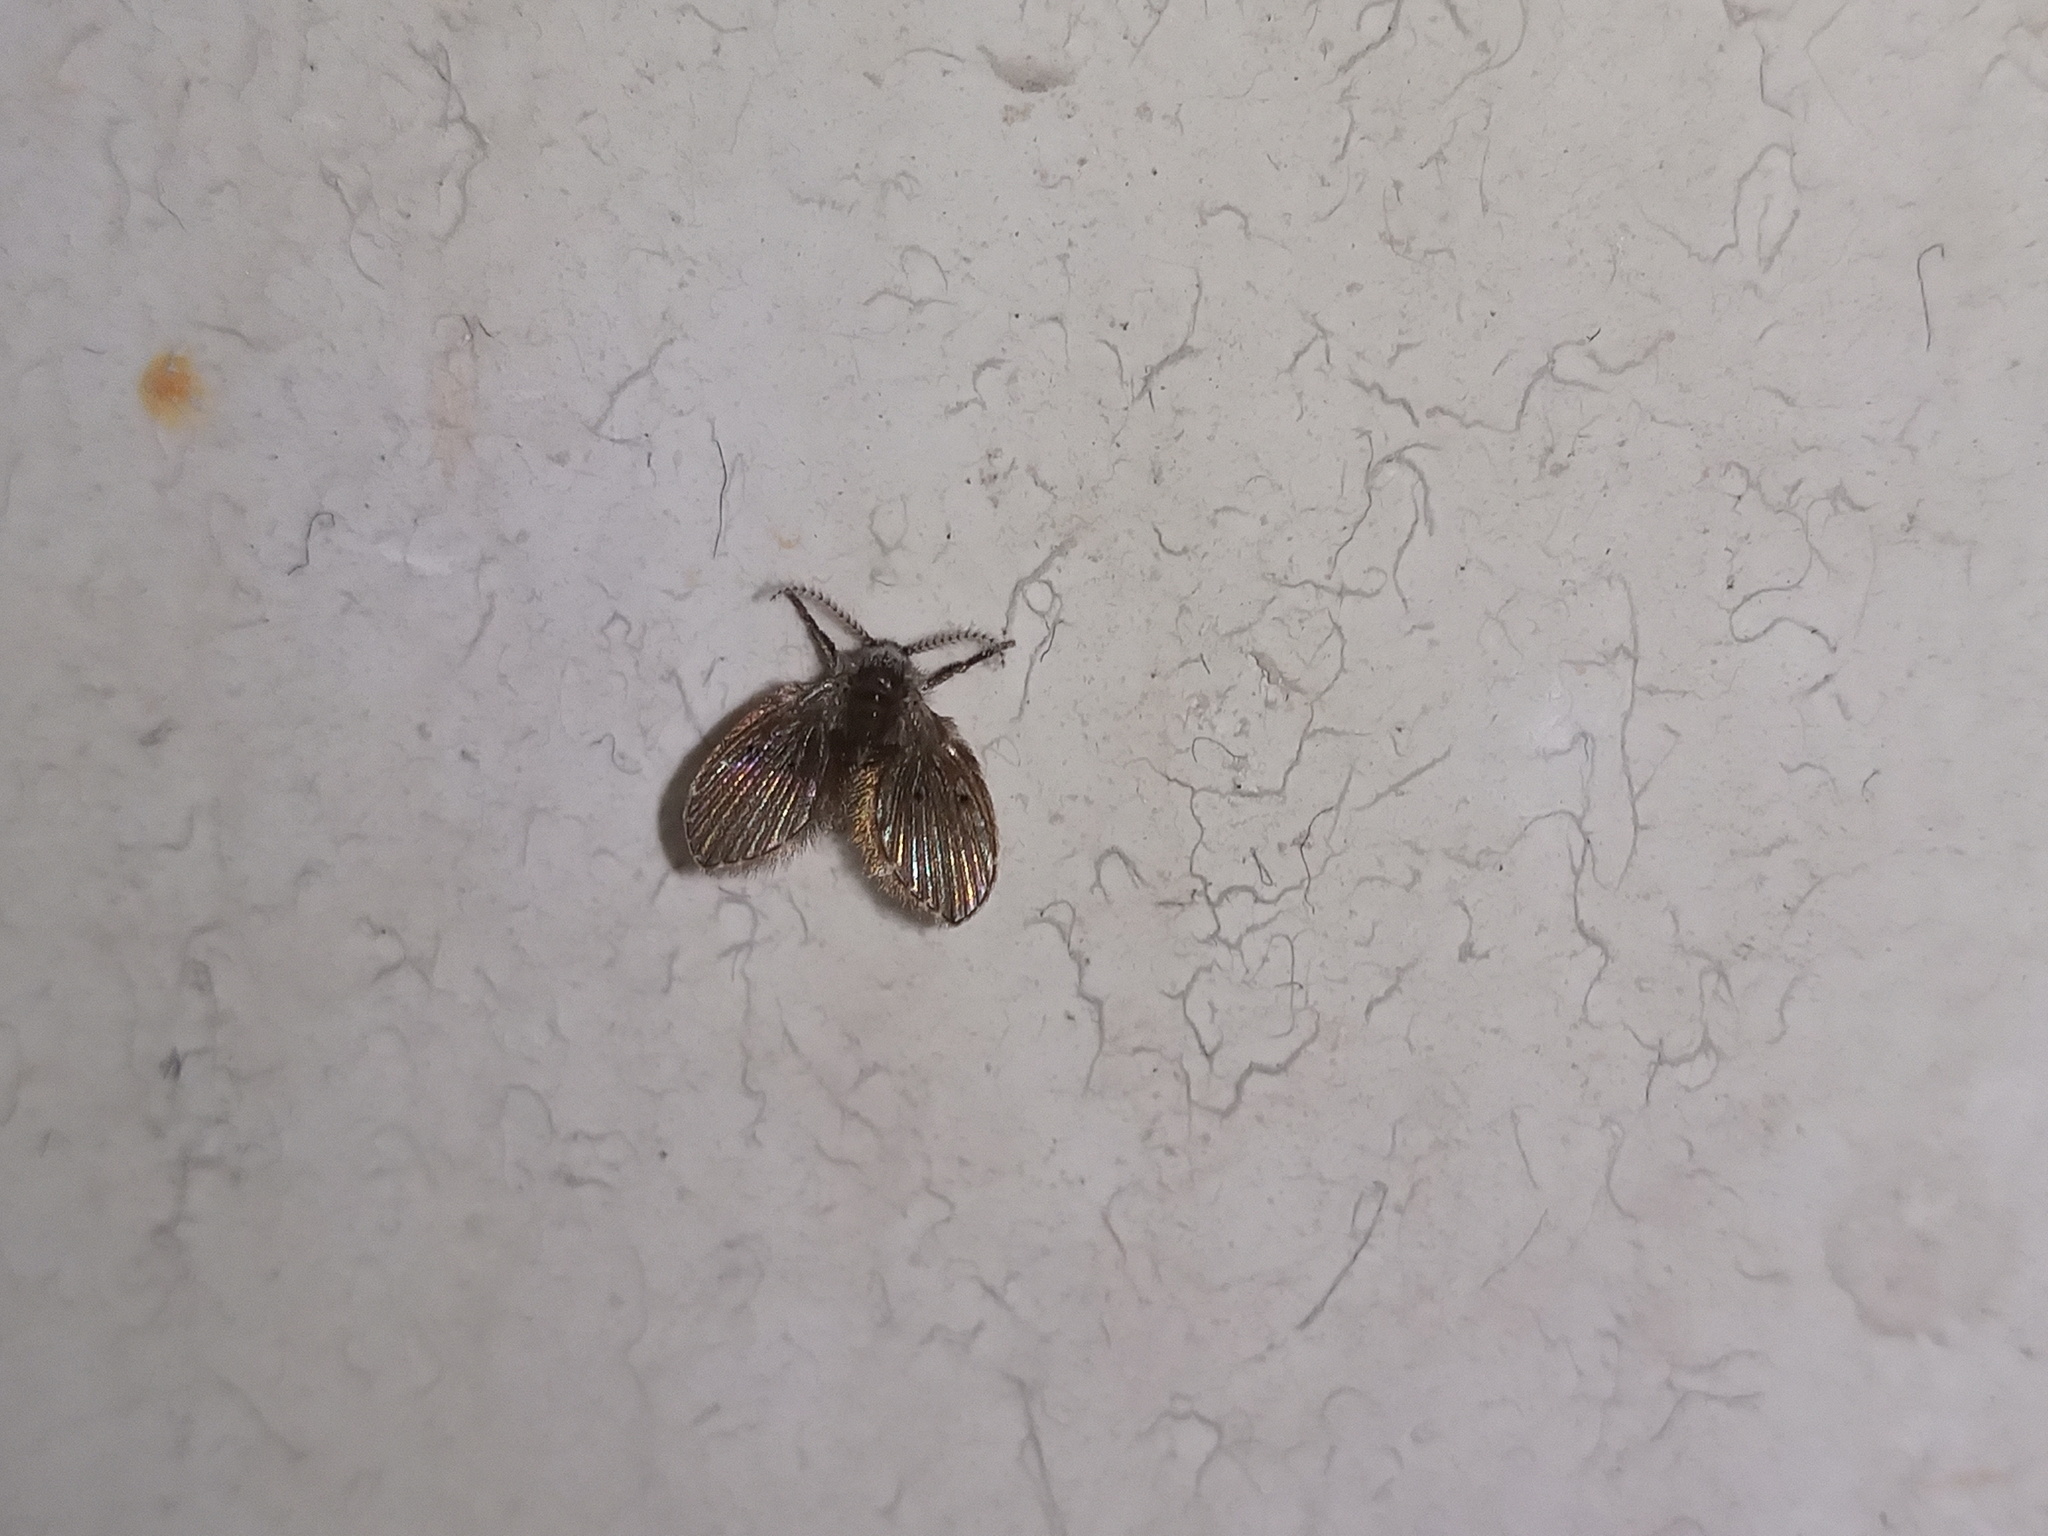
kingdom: Animalia
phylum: Arthropoda
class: Insecta
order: Diptera
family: Psychodidae
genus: Clogmia
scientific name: Clogmia albipunctatus
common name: White-spotted moth fly
